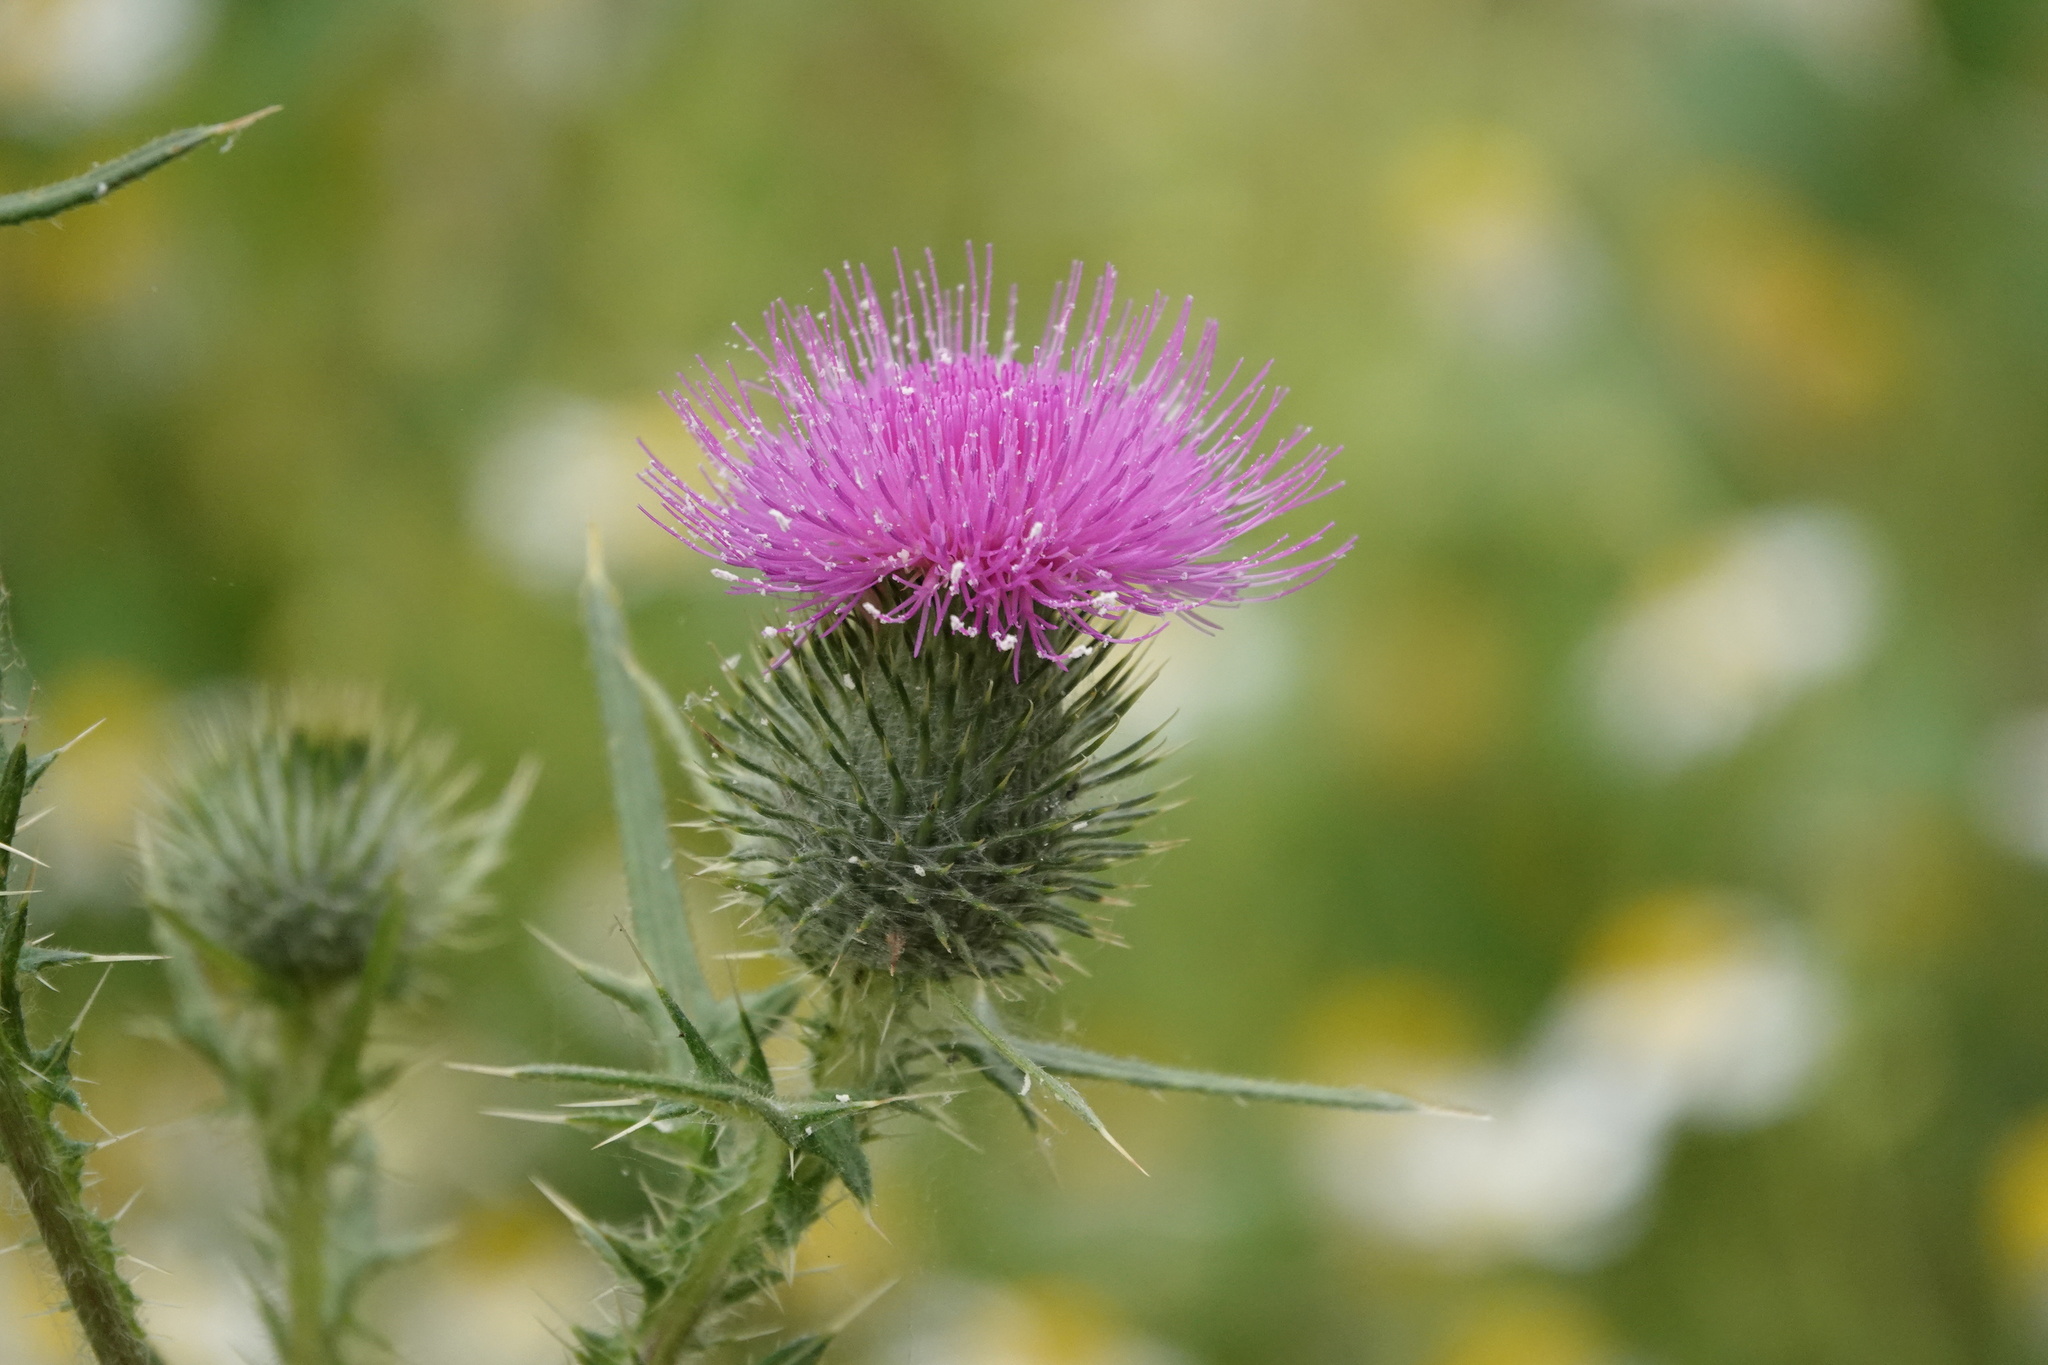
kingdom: Plantae
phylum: Tracheophyta
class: Magnoliopsida
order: Asterales
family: Asteraceae
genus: Cirsium
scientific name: Cirsium vulgare
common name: Bull thistle
